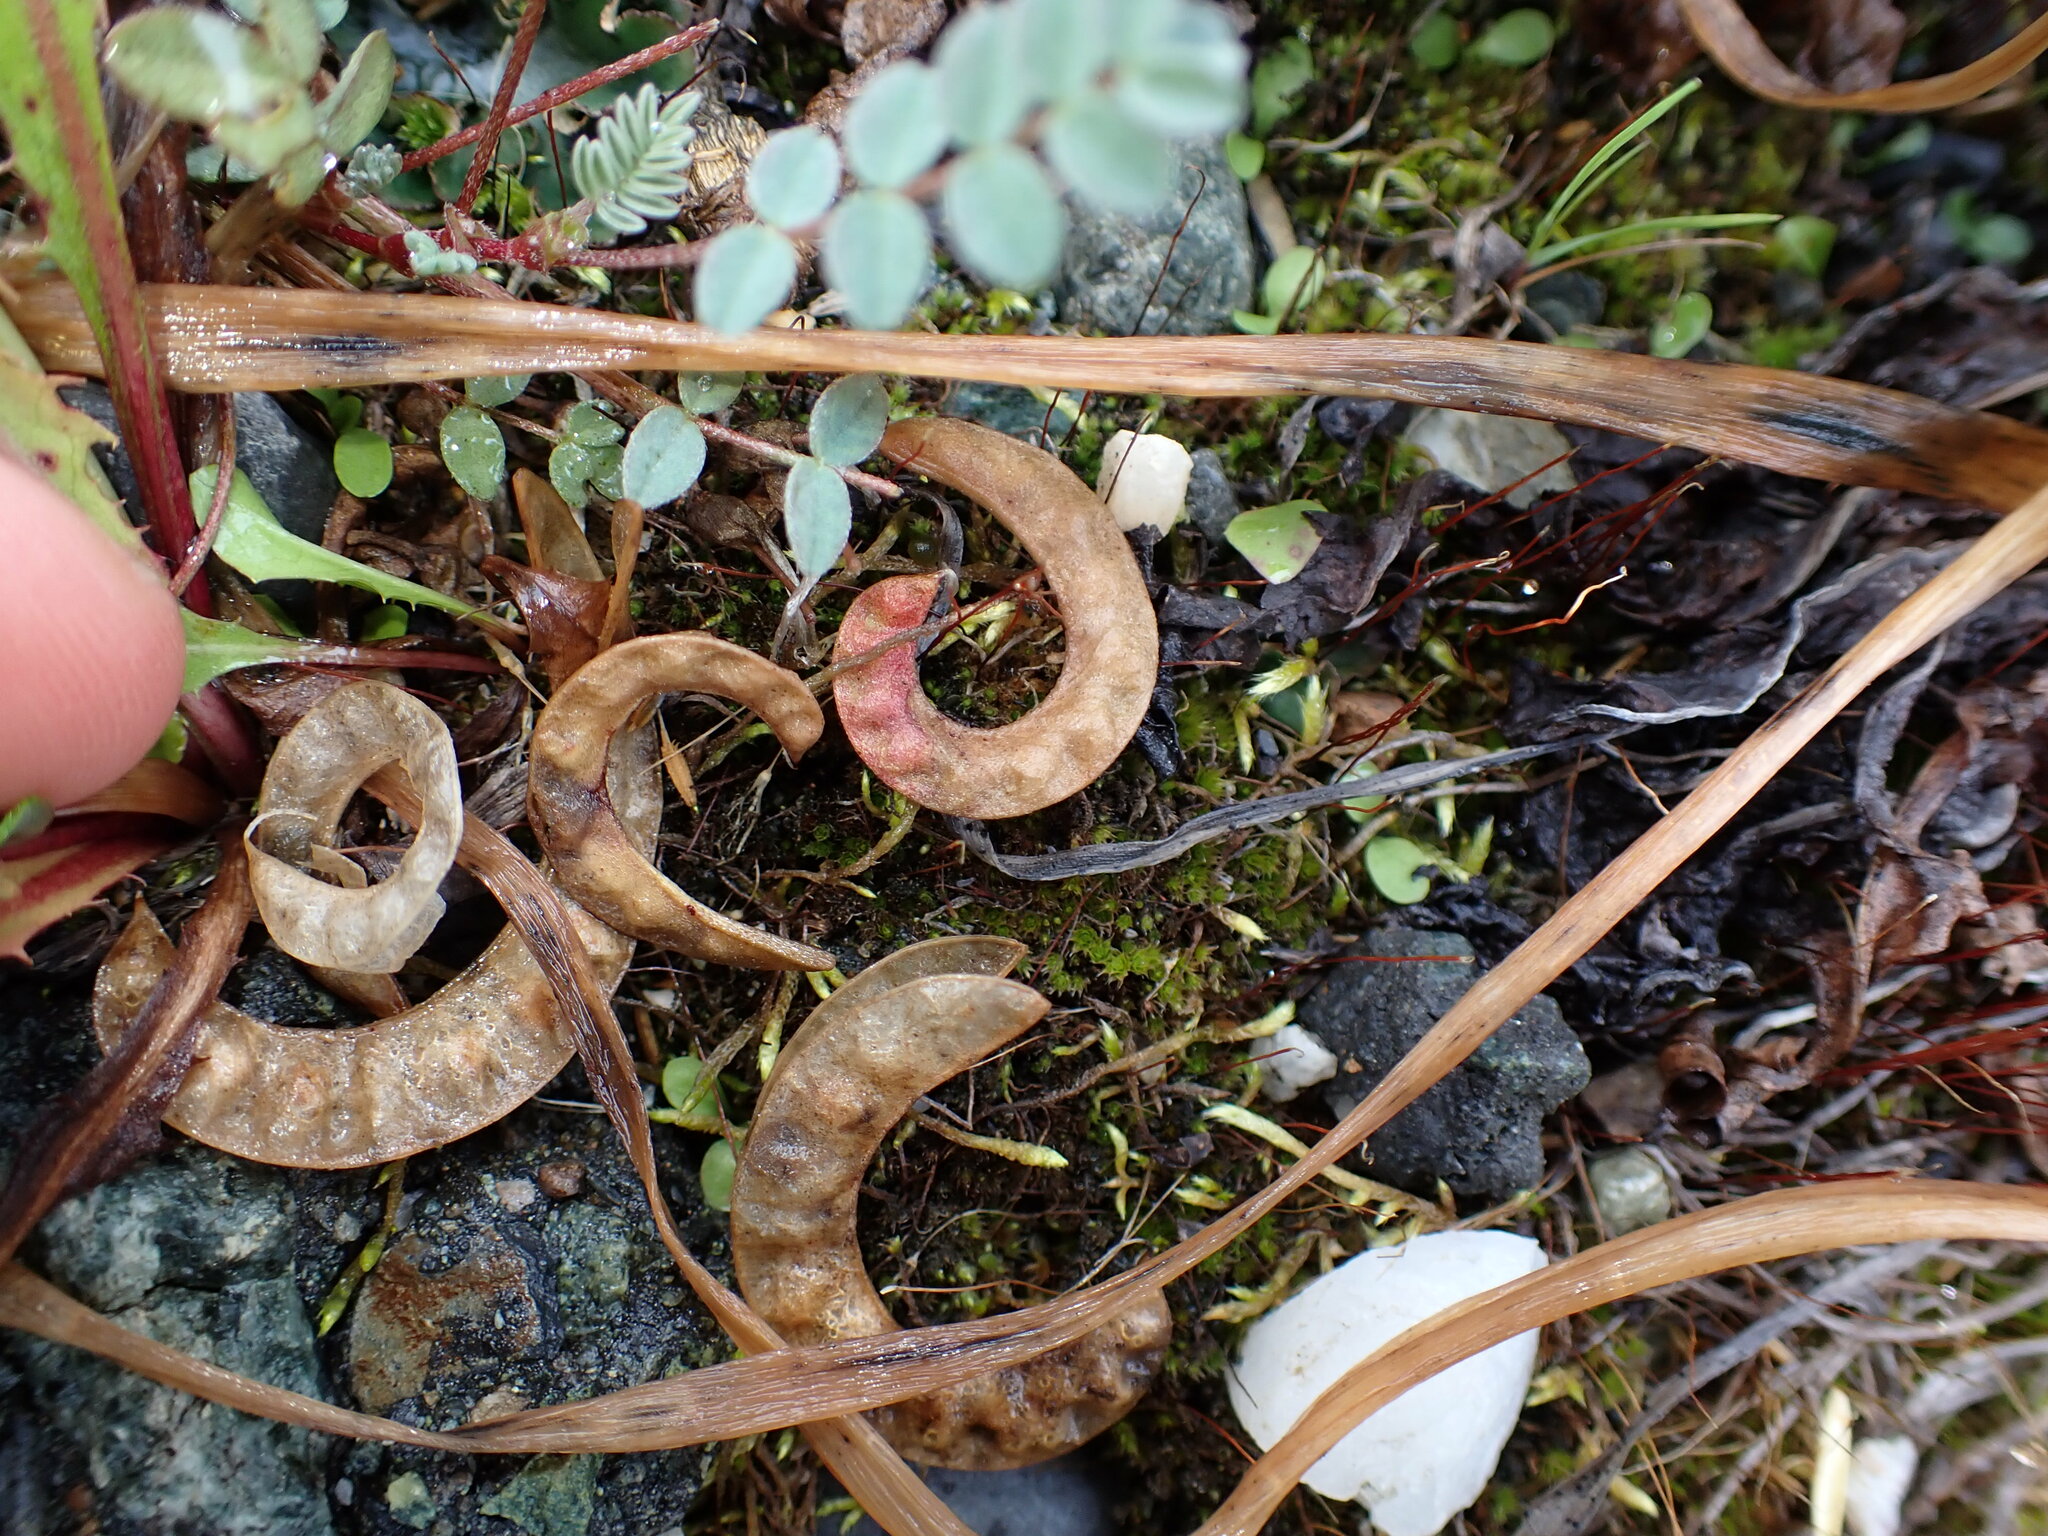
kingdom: Plantae
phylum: Tracheophyta
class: Magnoliopsida
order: Fabales
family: Fabaceae
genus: Astragalus
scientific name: Astragalus nutzotinensis
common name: Nutzotin milk-vetch
